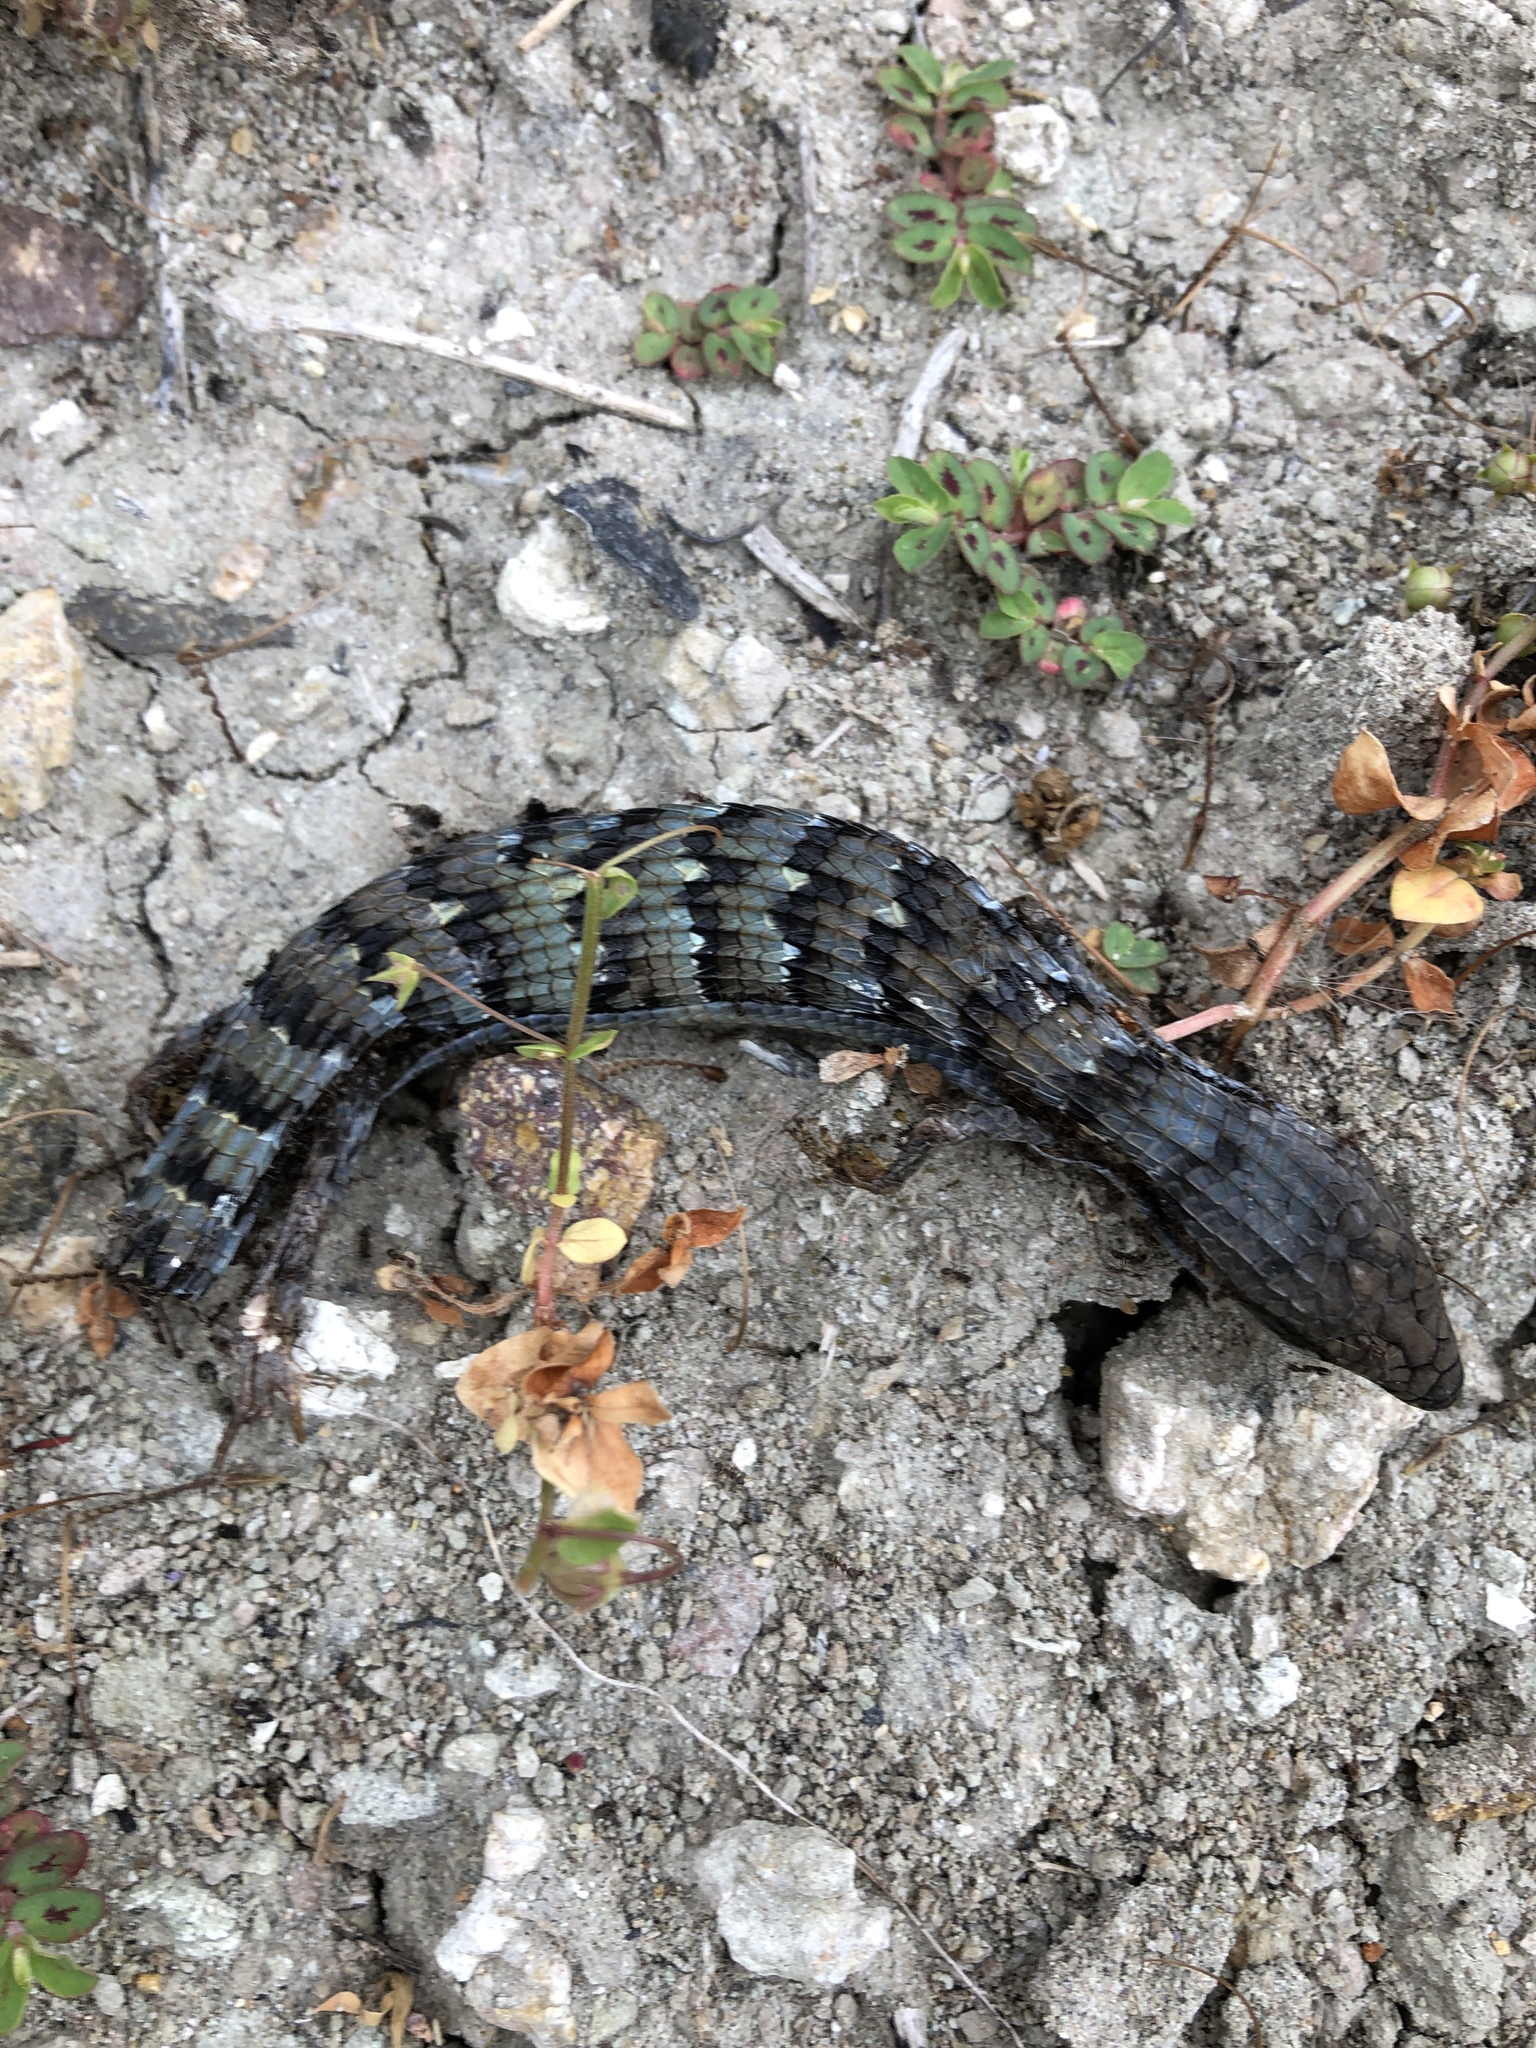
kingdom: Animalia
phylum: Chordata
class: Squamata
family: Anguidae
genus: Elgaria
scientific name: Elgaria multicarinata
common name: Southern alligator lizard
